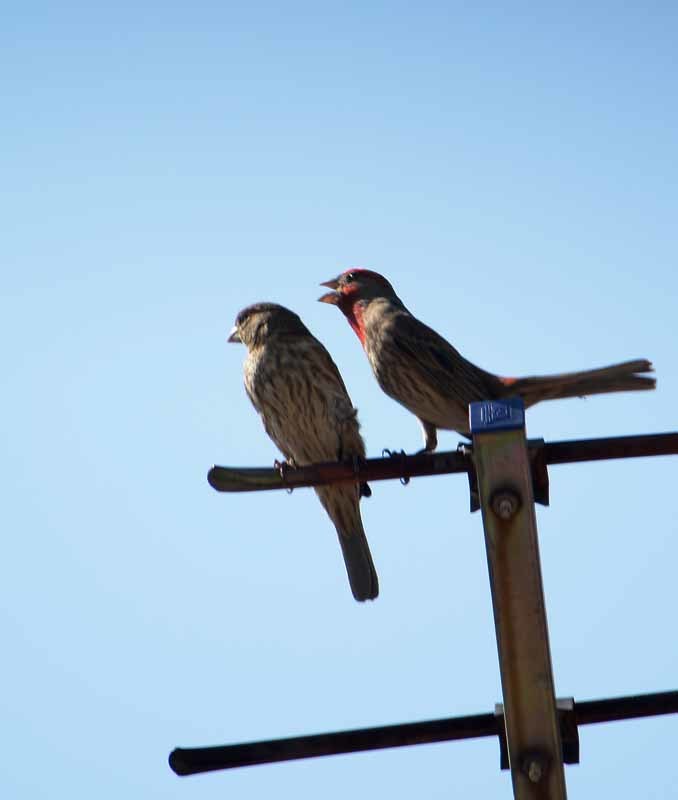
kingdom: Animalia
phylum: Chordata
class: Aves
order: Passeriformes
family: Fringillidae
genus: Haemorhous
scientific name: Haemorhous mexicanus
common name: House finch
